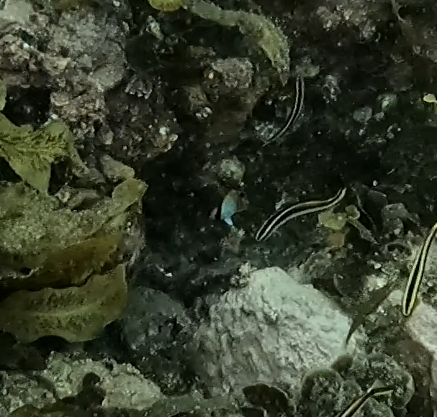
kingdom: Animalia
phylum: Chordata
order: Perciformes
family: Chaetodontidae
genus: Chaetodon
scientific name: Chaetodon auriga
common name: Threadfin butterflyfish
